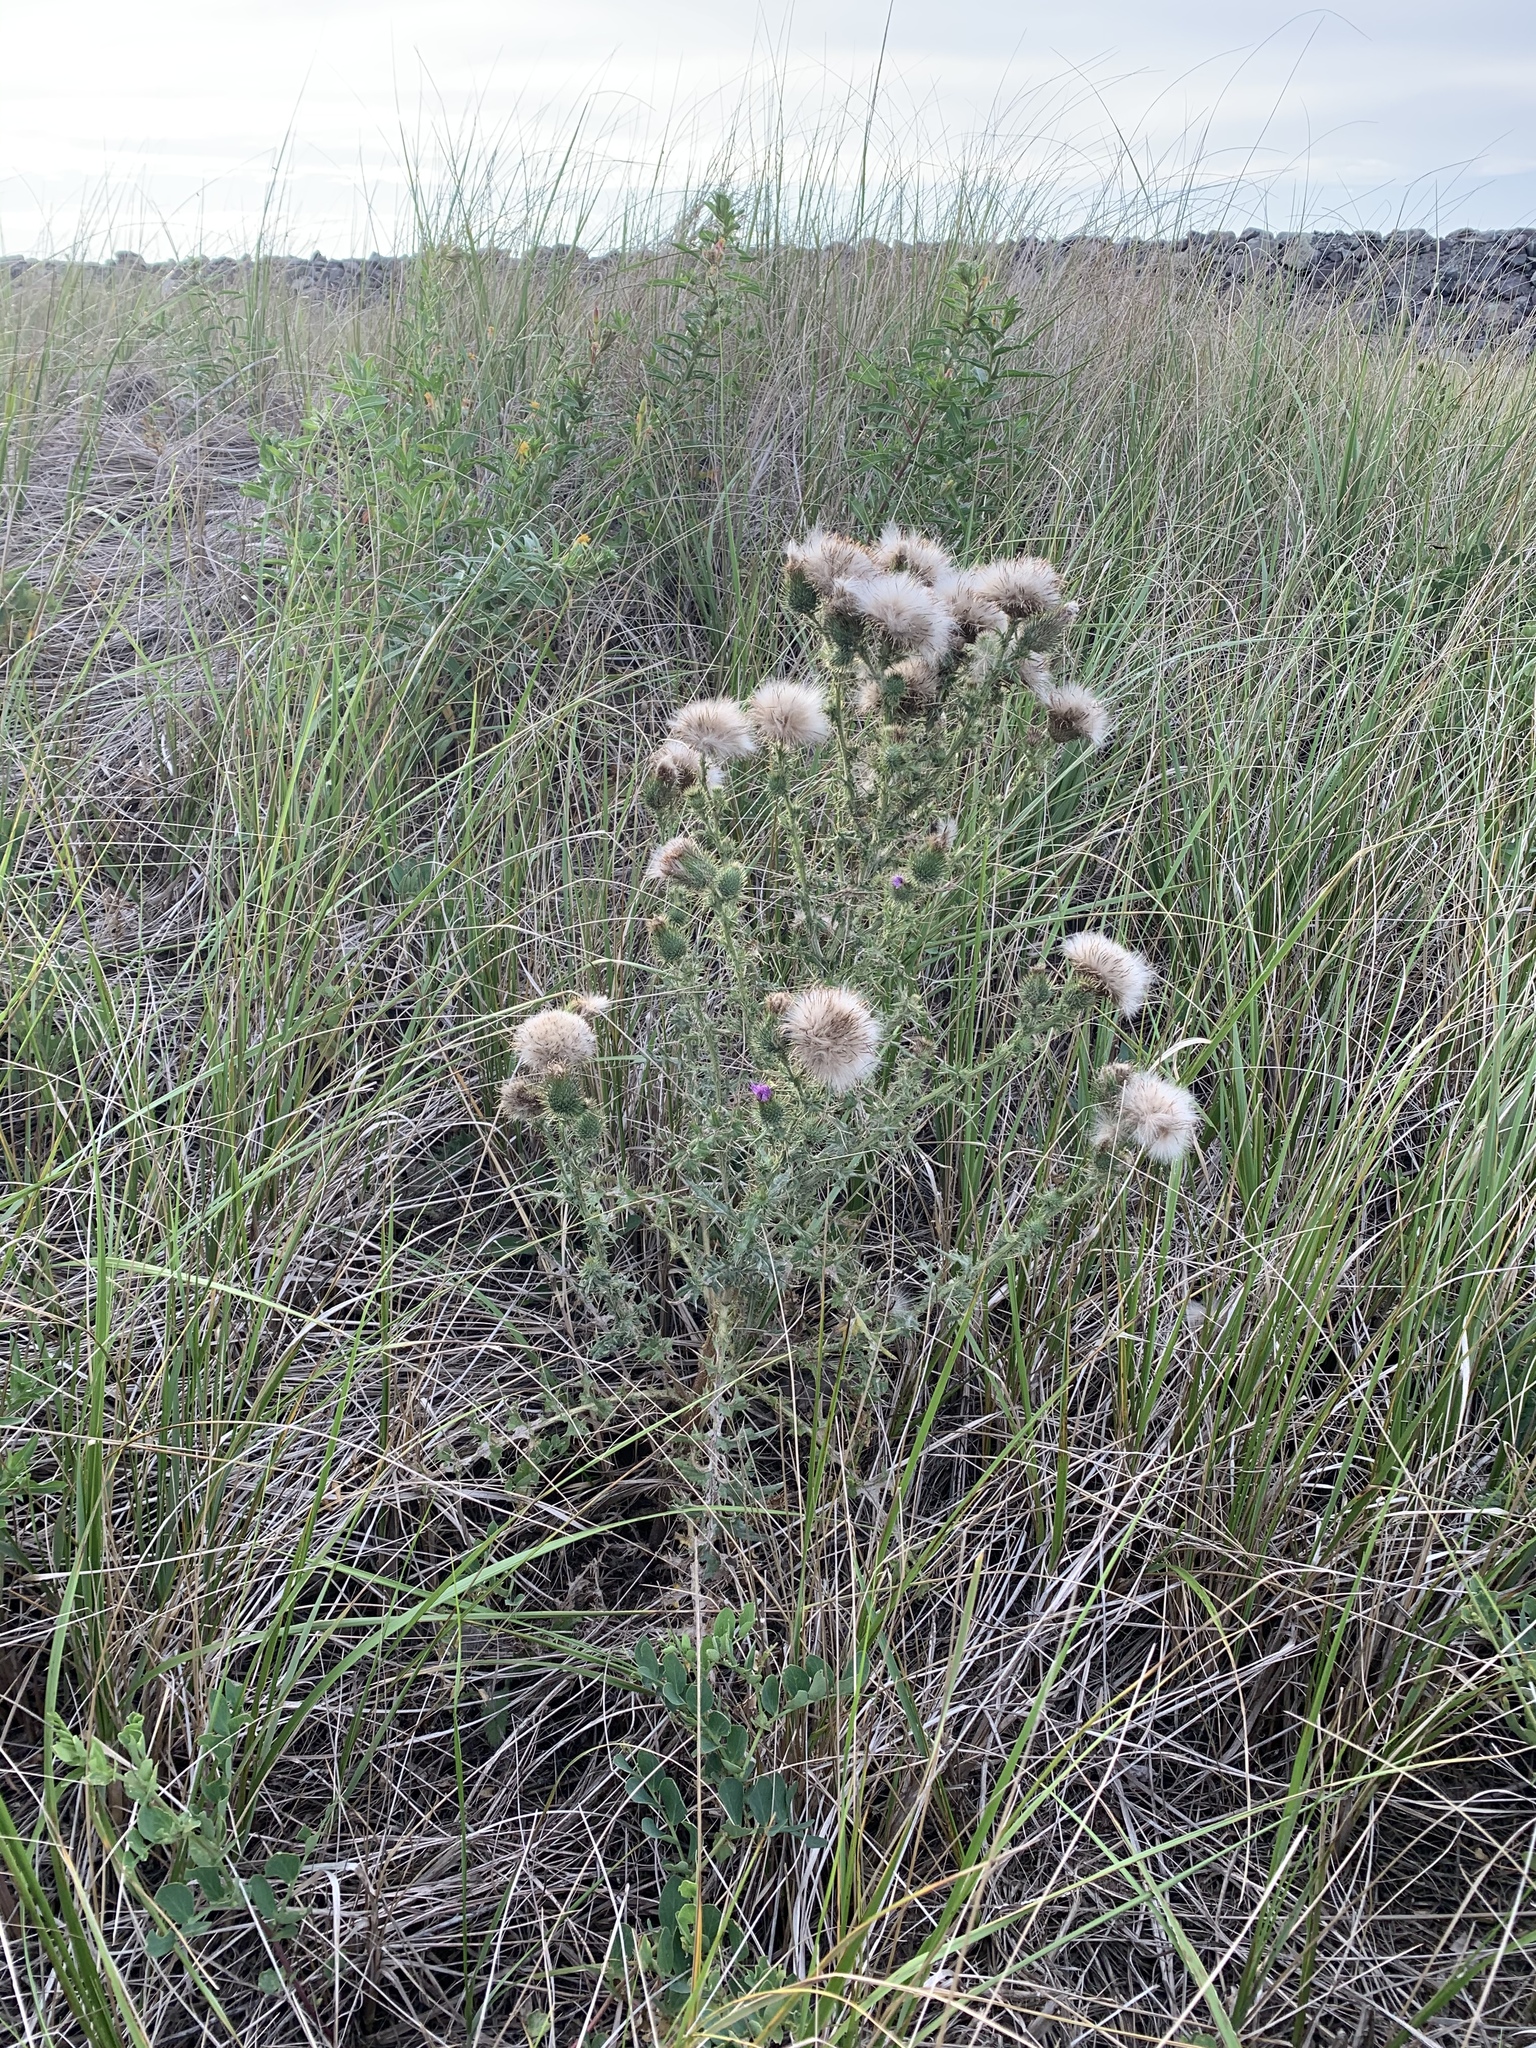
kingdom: Plantae
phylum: Tracheophyta
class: Magnoliopsida
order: Asterales
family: Asteraceae
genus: Cirsium
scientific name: Cirsium arvense
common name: Creeping thistle
